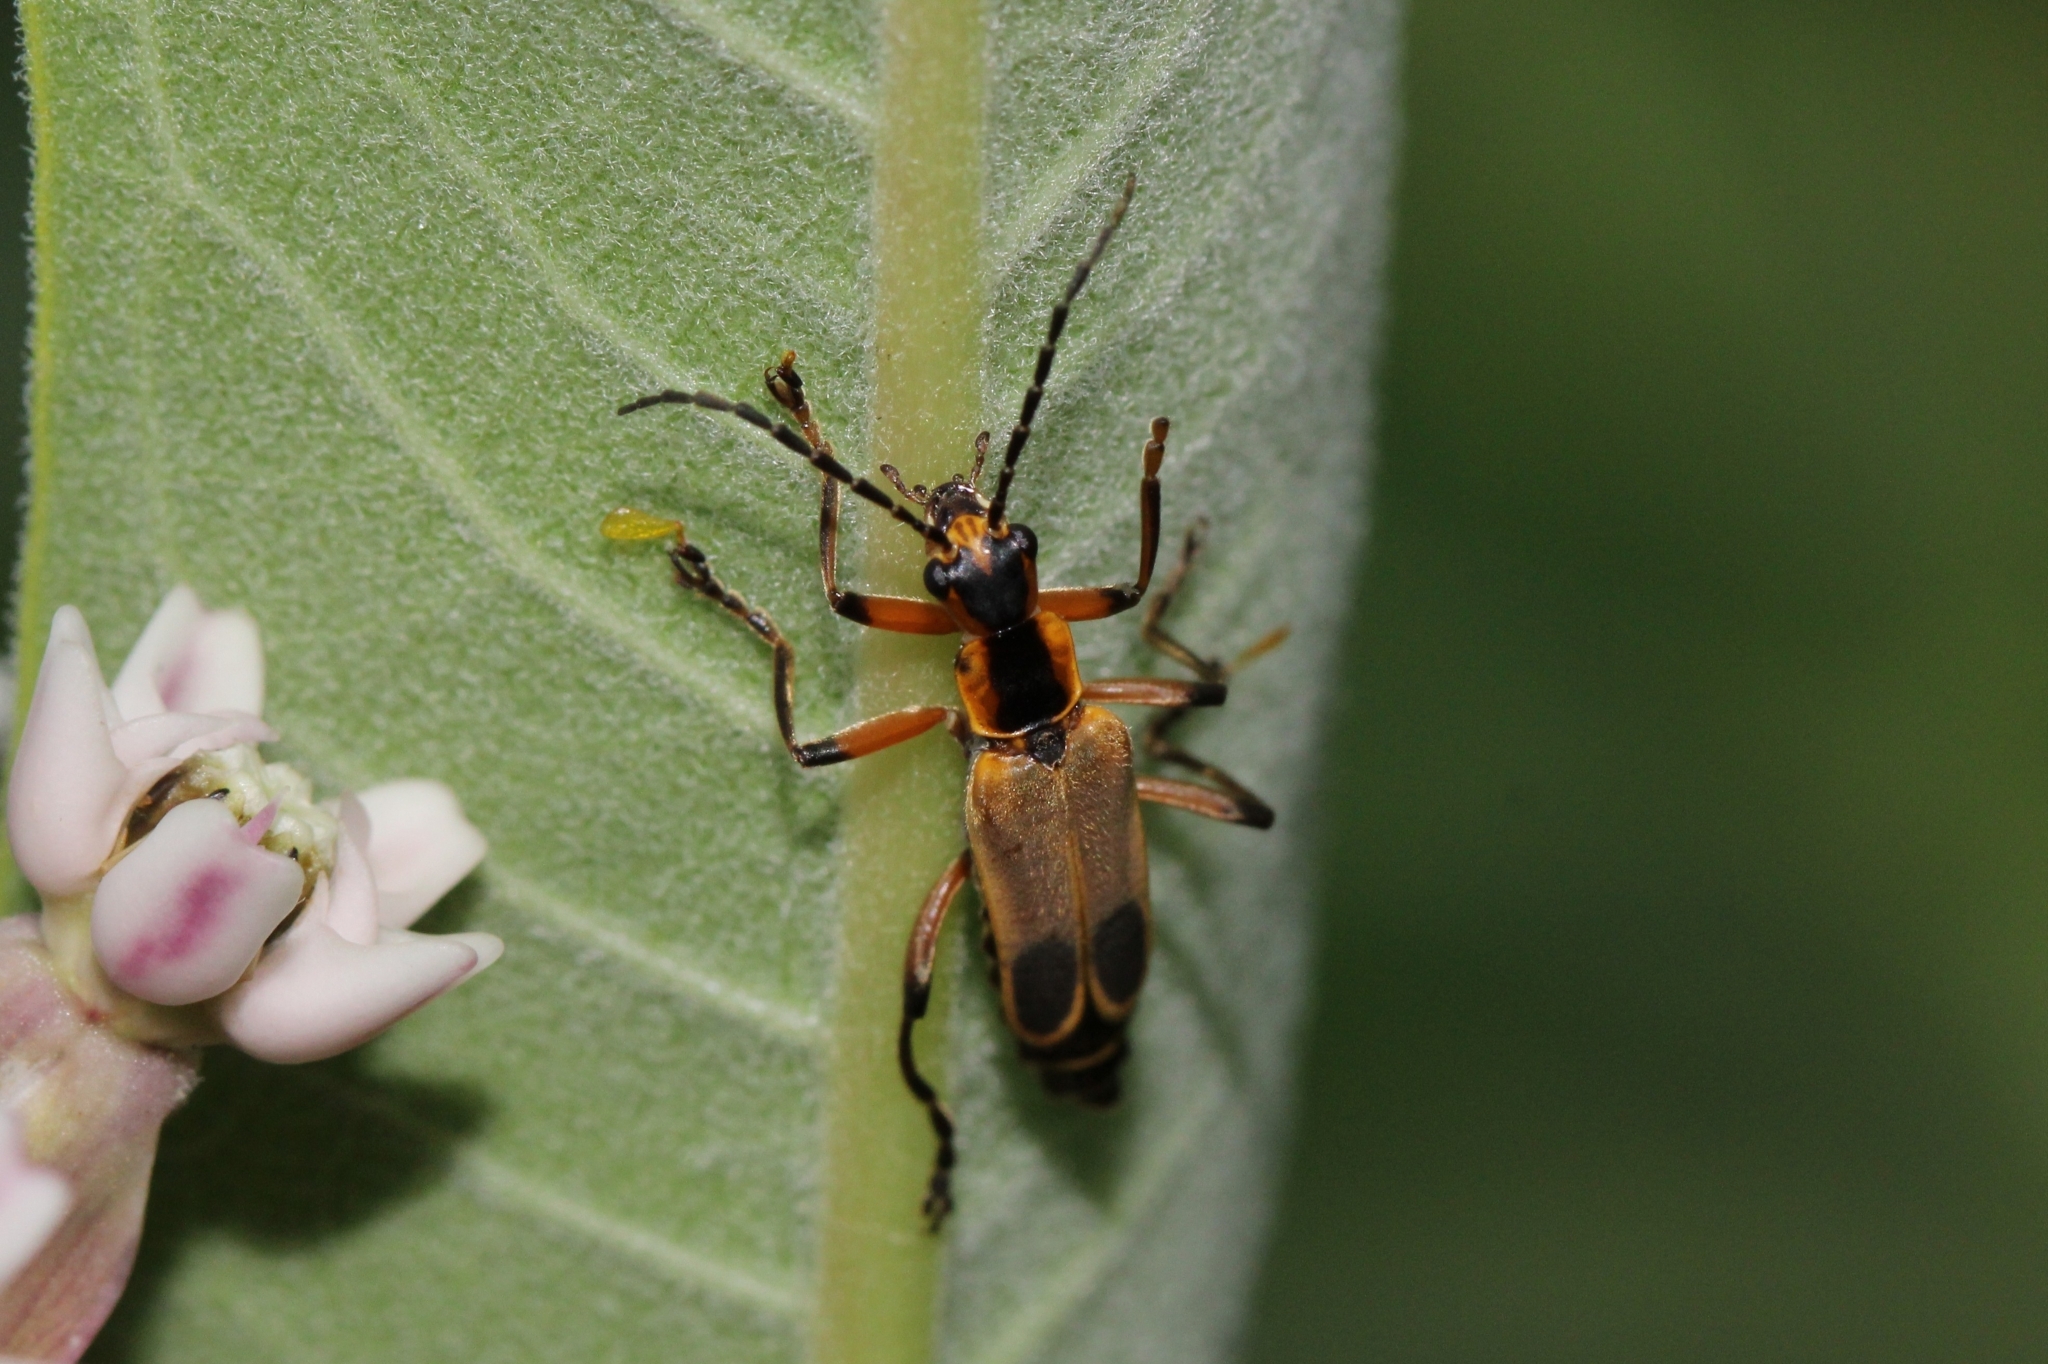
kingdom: Animalia
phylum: Arthropoda
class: Insecta
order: Coleoptera
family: Cantharidae
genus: Chauliognathus
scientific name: Chauliognathus marginatus
